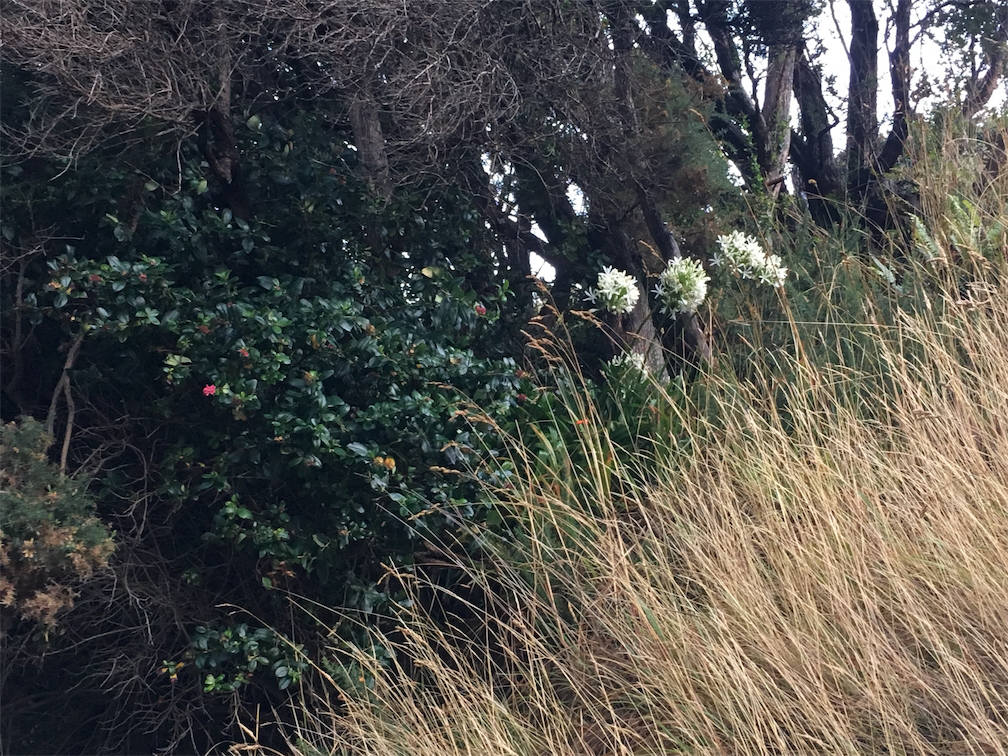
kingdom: Plantae
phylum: Tracheophyta
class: Liliopsida
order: Asparagales
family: Amaryllidaceae
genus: Agapanthus
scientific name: Agapanthus praecox
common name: African-lily
